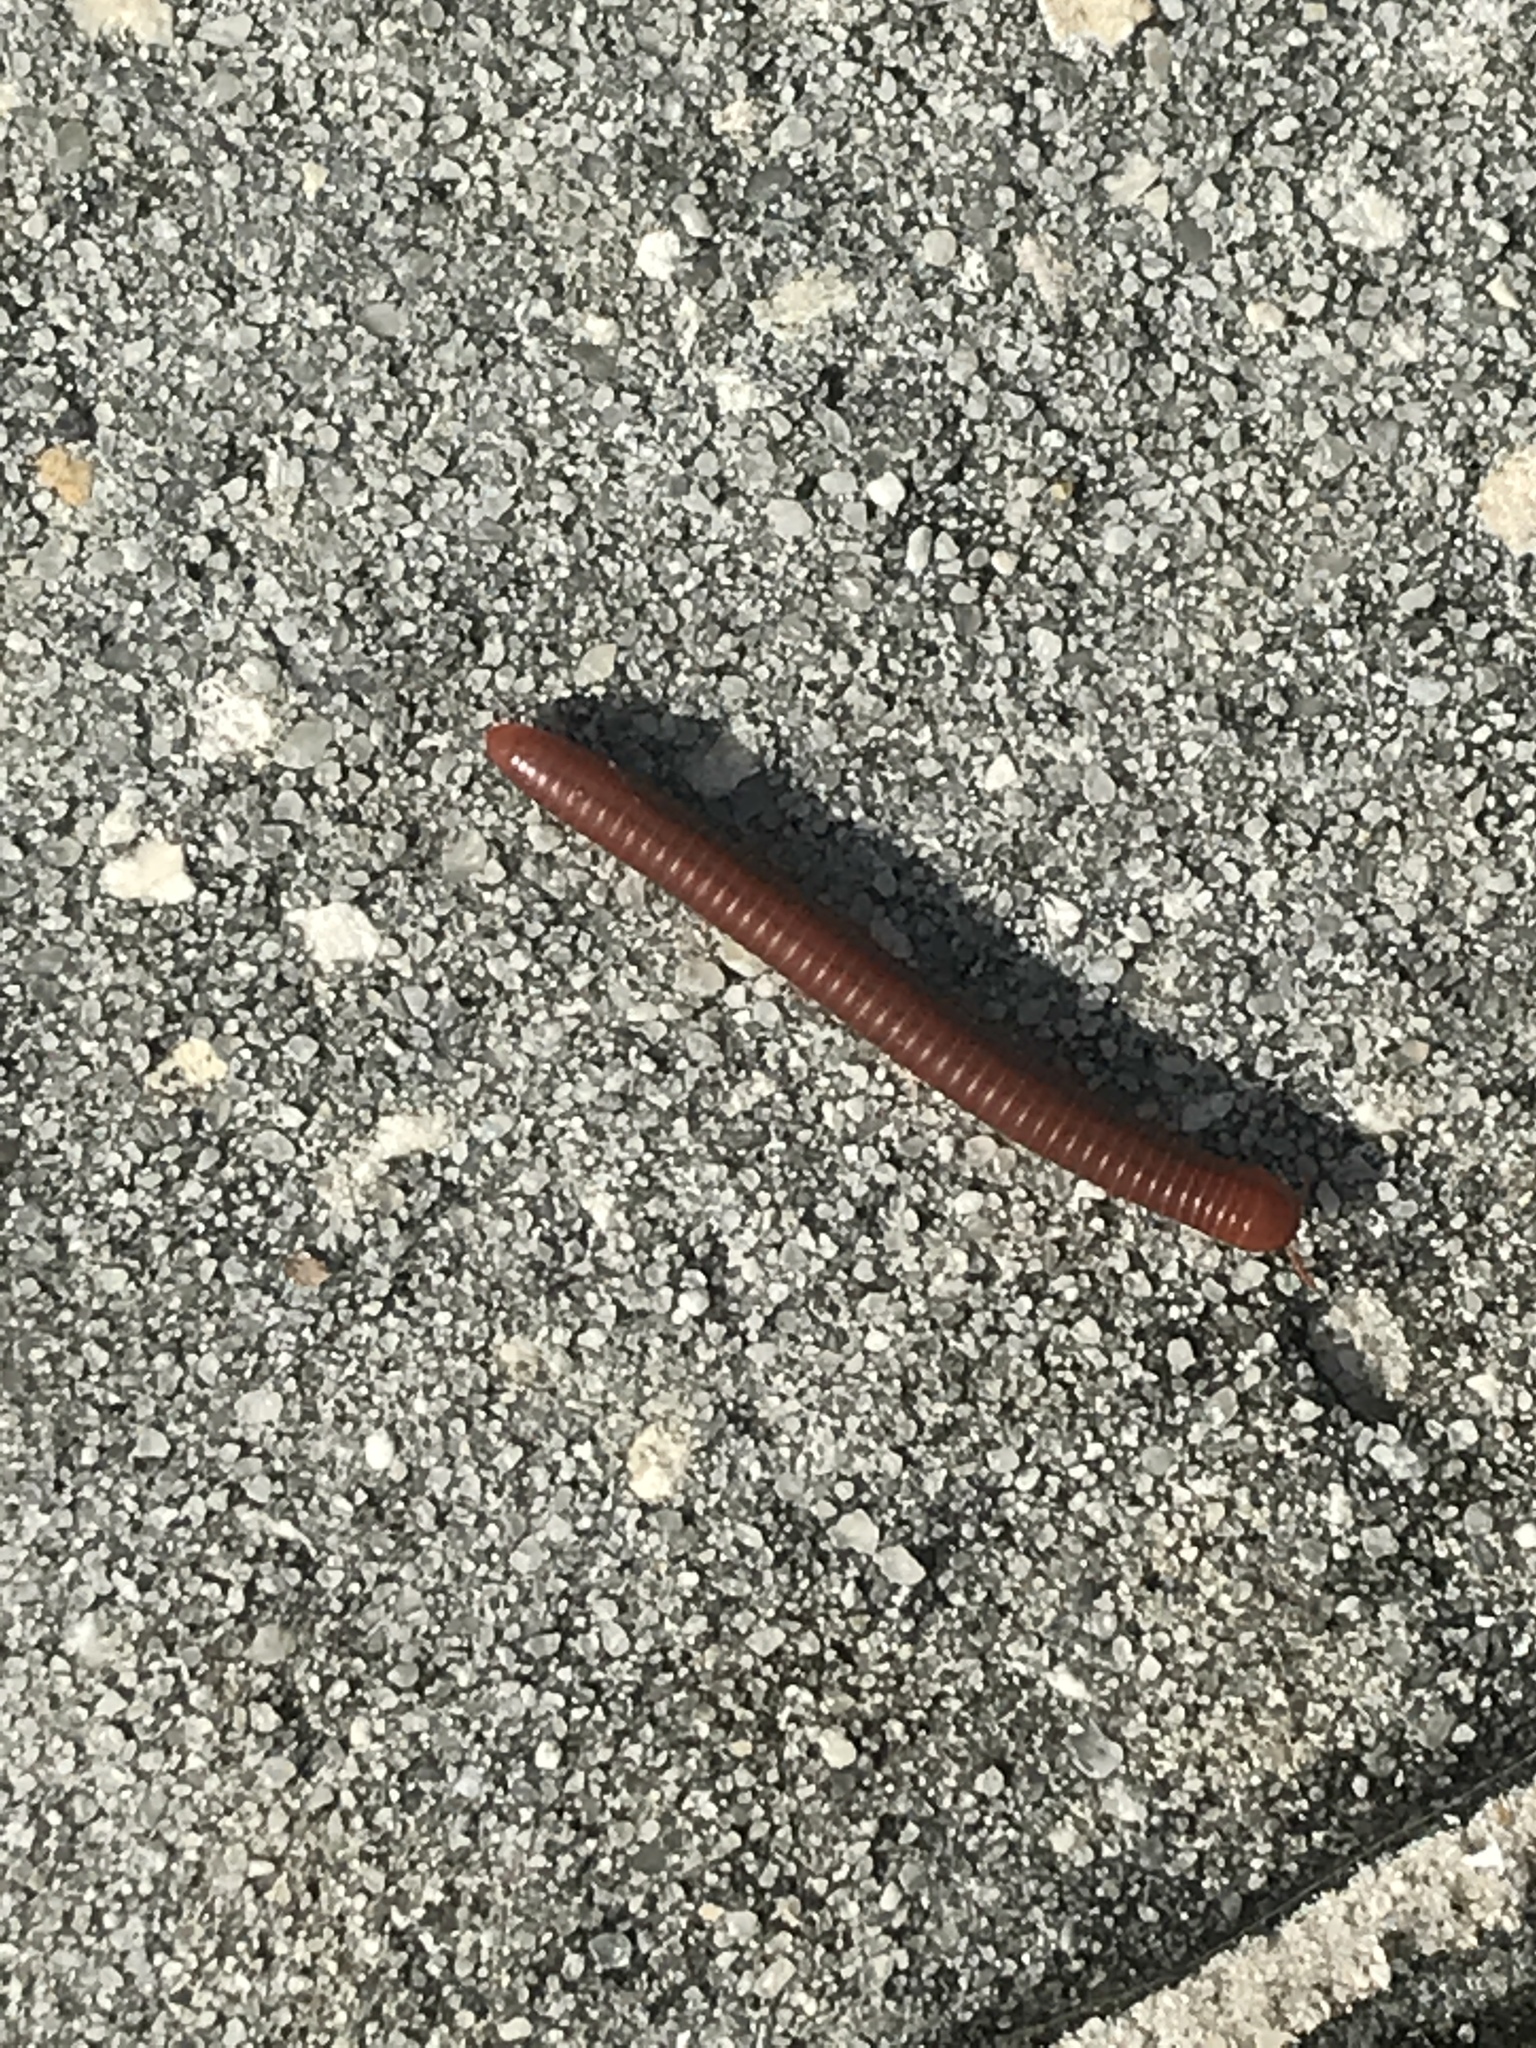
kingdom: Animalia
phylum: Arthropoda
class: Diplopoda
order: Spirobolida
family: Pachybolidae
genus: Trigoniulus
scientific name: Trigoniulus corallinus
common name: Millipede
